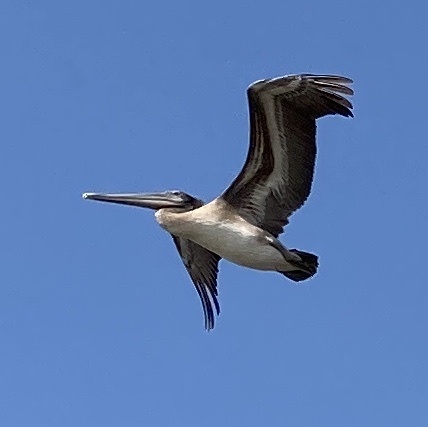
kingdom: Animalia
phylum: Chordata
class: Aves
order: Pelecaniformes
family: Pelecanidae
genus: Pelecanus
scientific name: Pelecanus occidentalis
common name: Brown pelican
